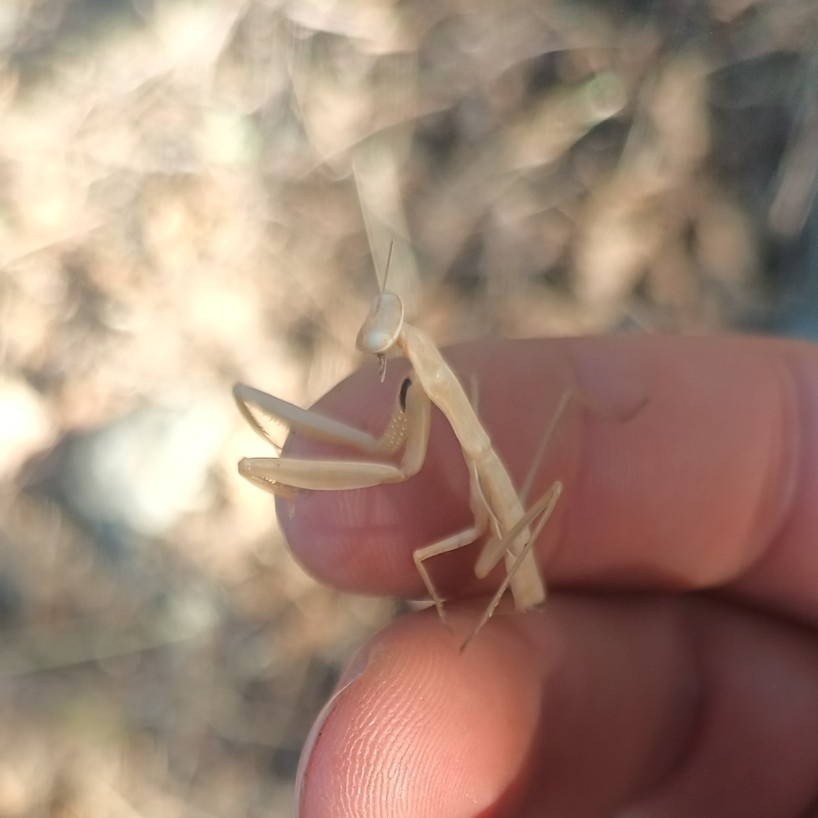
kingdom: Animalia
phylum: Arthropoda
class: Insecta
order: Mantodea
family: Mantidae
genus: Mantis
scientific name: Mantis religiosa
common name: Praying mantis
